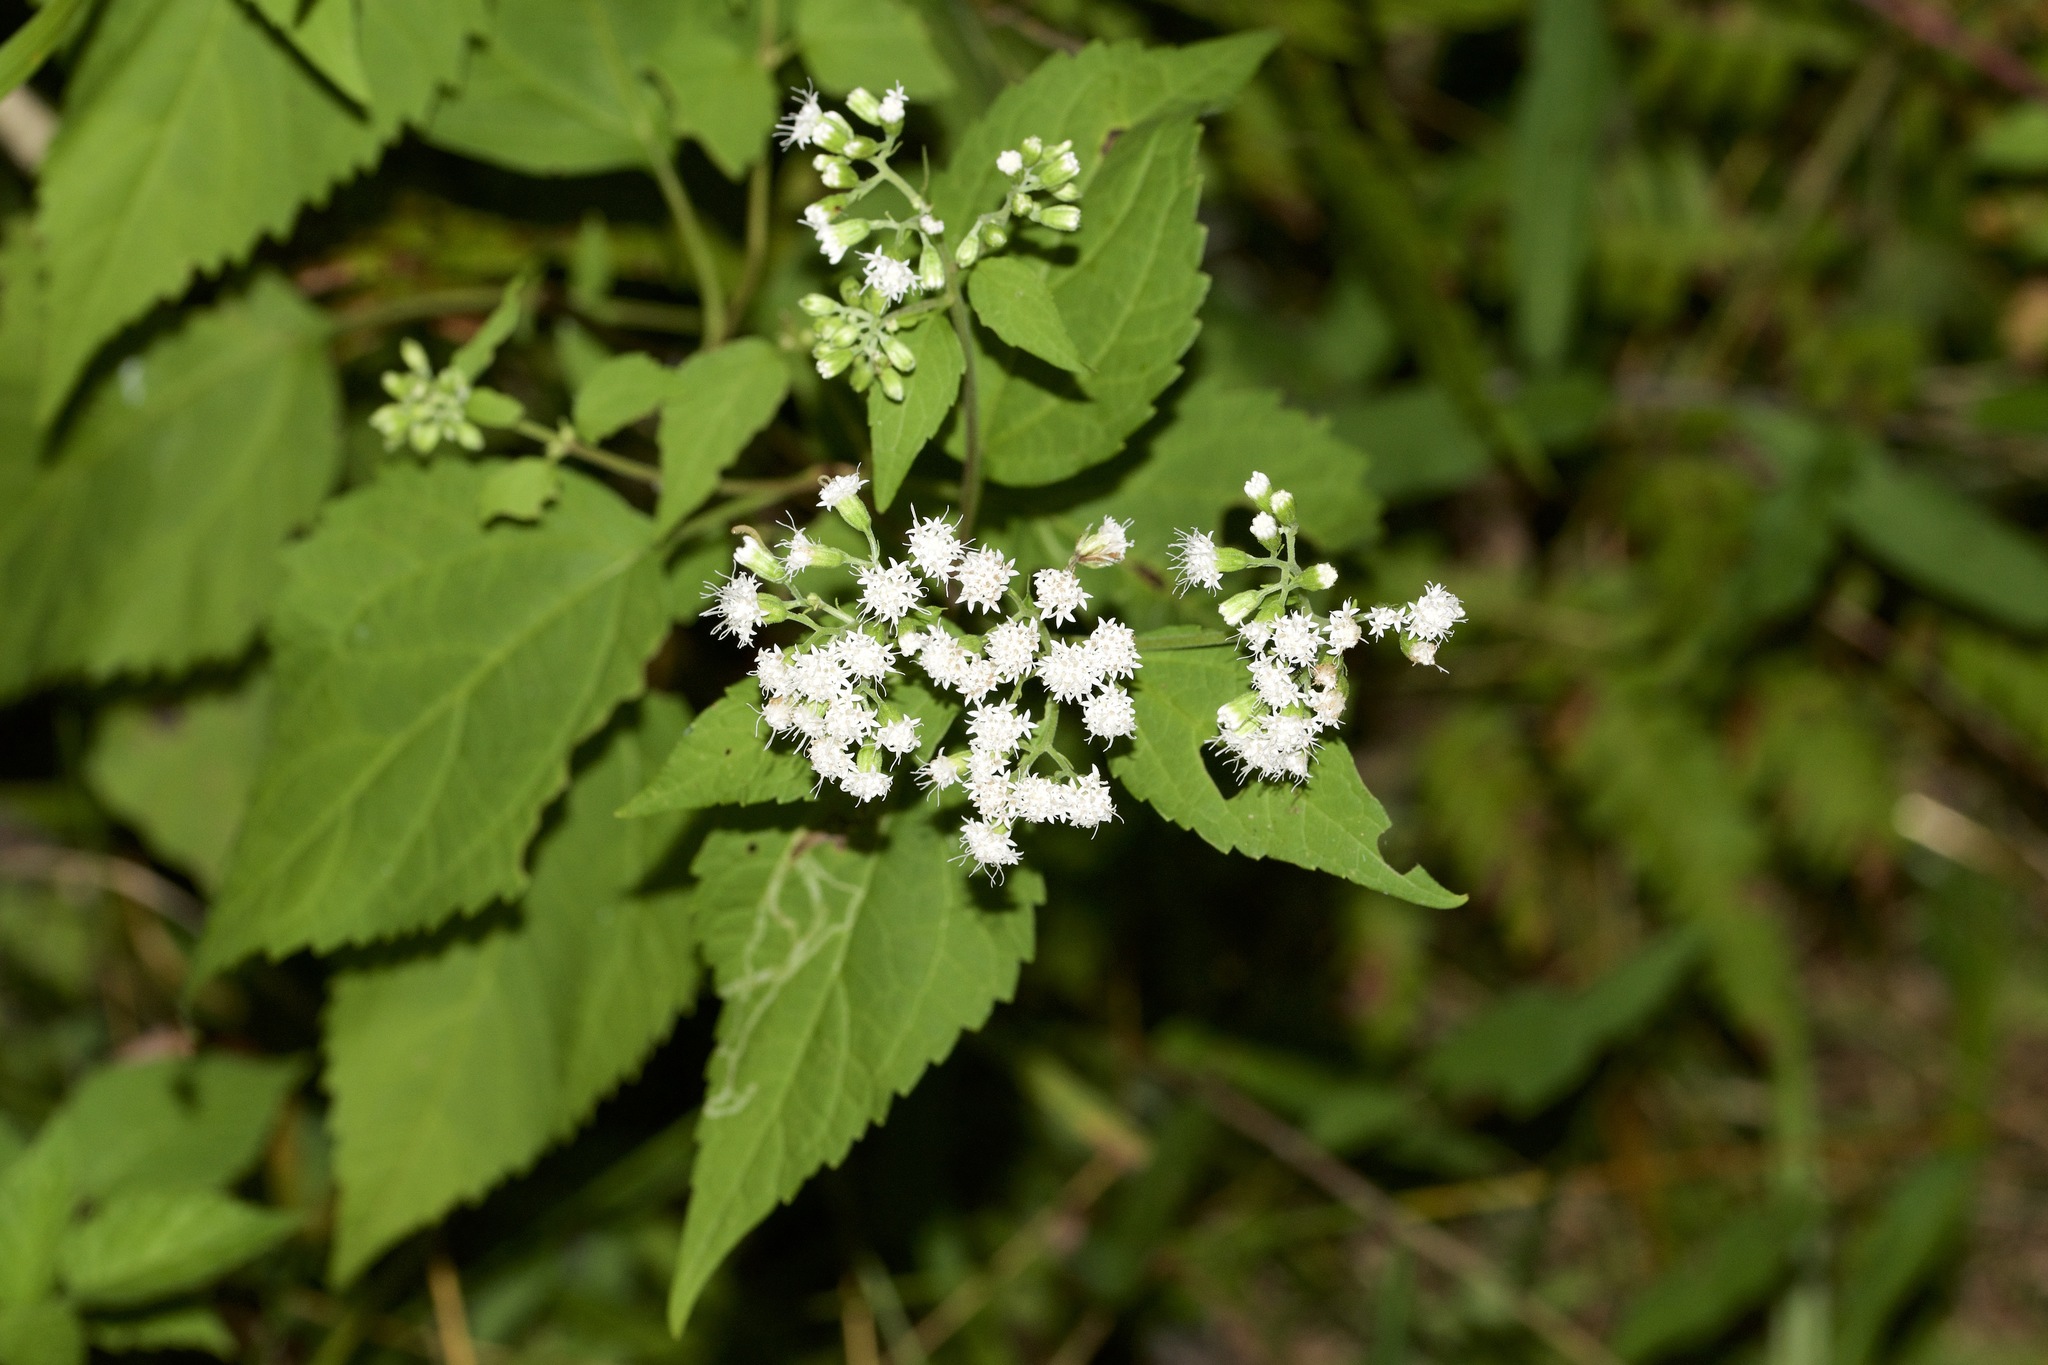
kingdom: Plantae
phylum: Tracheophyta
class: Magnoliopsida
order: Asterales
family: Asteraceae
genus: Ageratina
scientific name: Ageratina altissima
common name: White snakeroot
